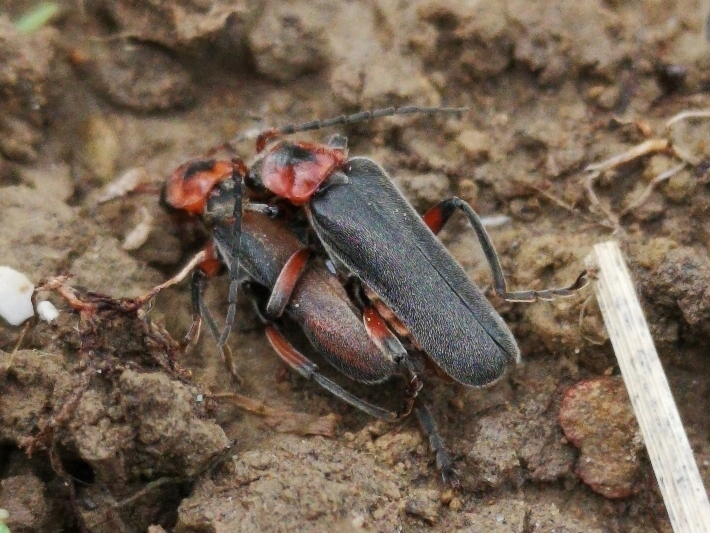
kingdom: Animalia
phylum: Arthropoda
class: Insecta
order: Coleoptera
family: Cantharidae
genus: Cantharis
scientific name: Cantharis rustica
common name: Soldier beetle
